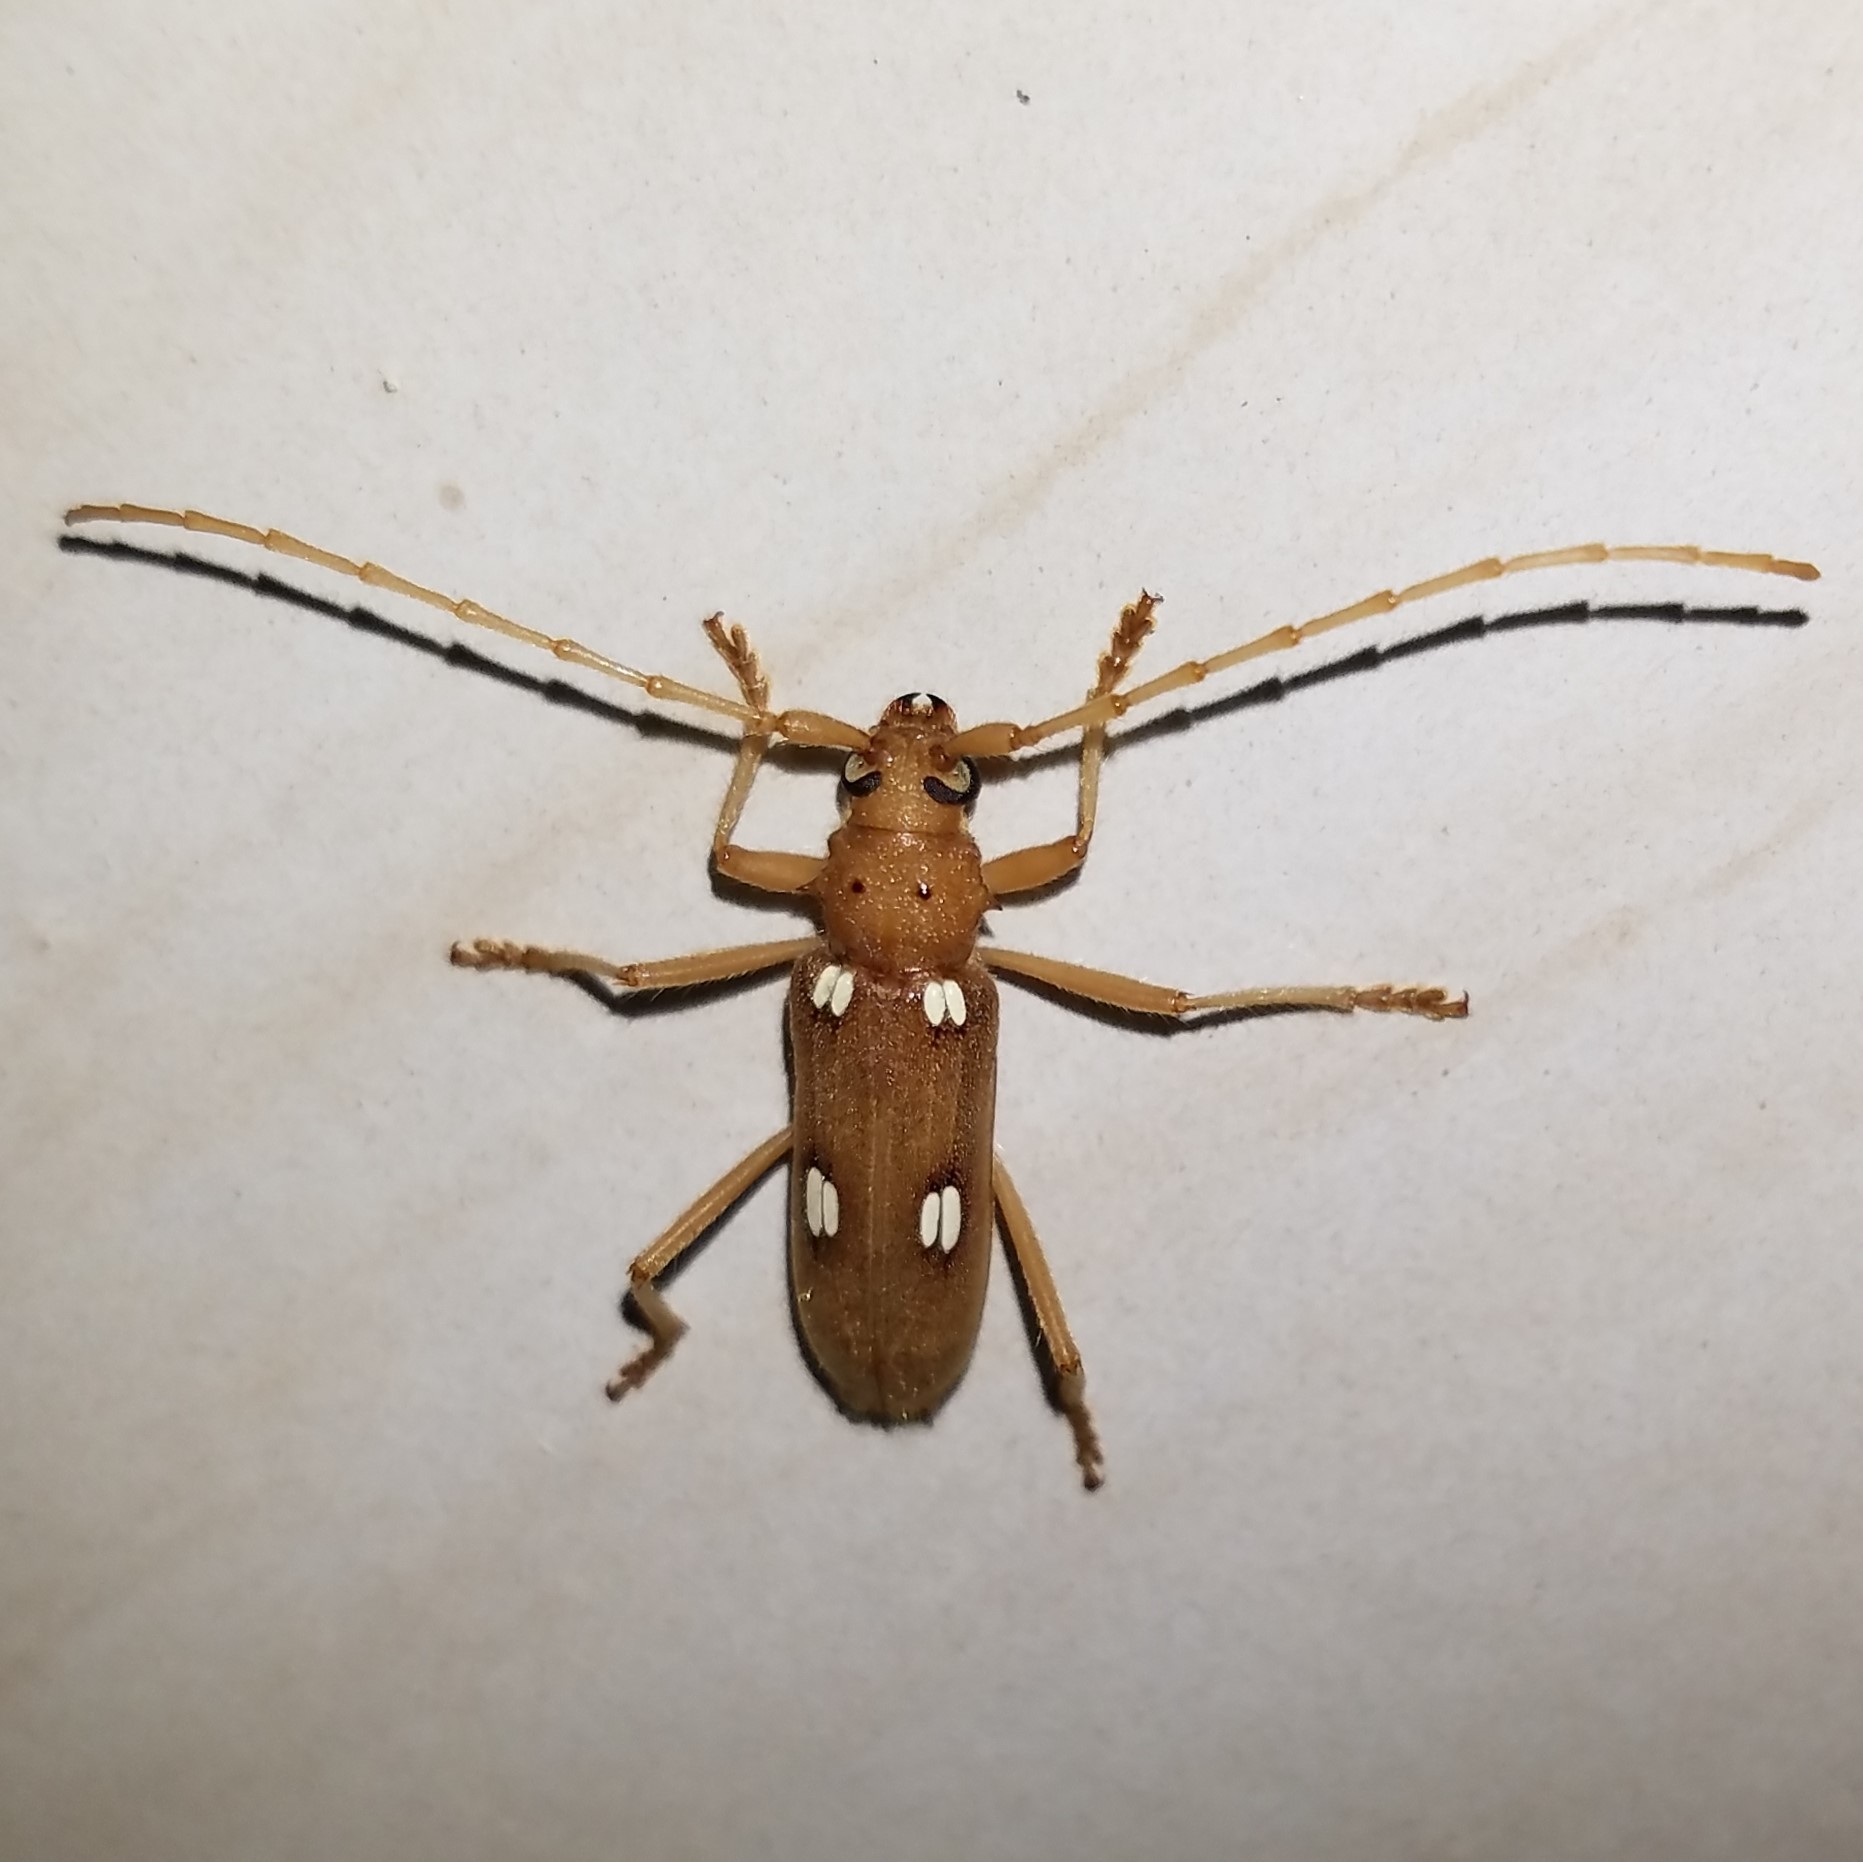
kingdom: Animalia
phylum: Arthropoda
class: Insecta
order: Coleoptera
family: Cerambycidae
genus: Eburia
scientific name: Eburia quadrigeminata
